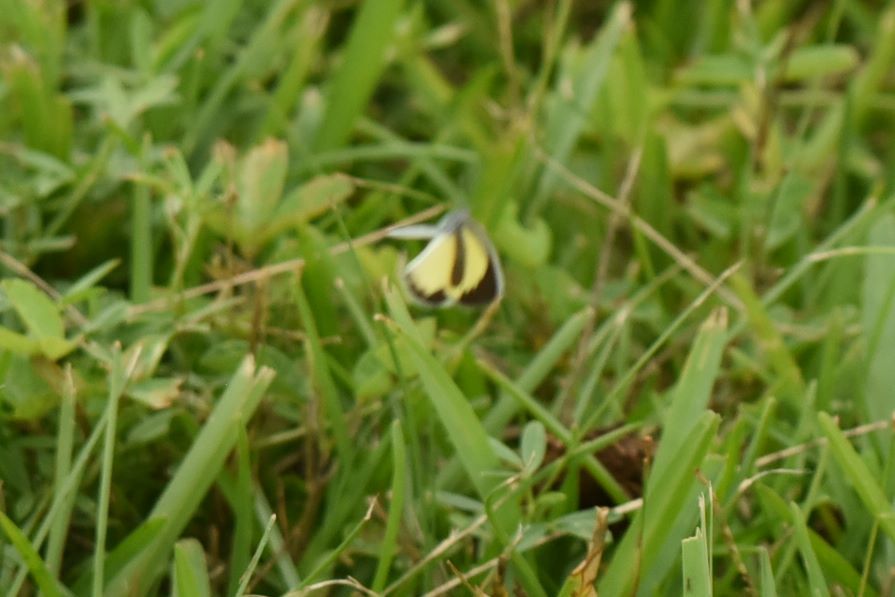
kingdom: Animalia
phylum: Arthropoda
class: Insecta
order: Lepidoptera
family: Pieridae
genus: Eurema
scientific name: Eurema daira
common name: Barred sulphur
